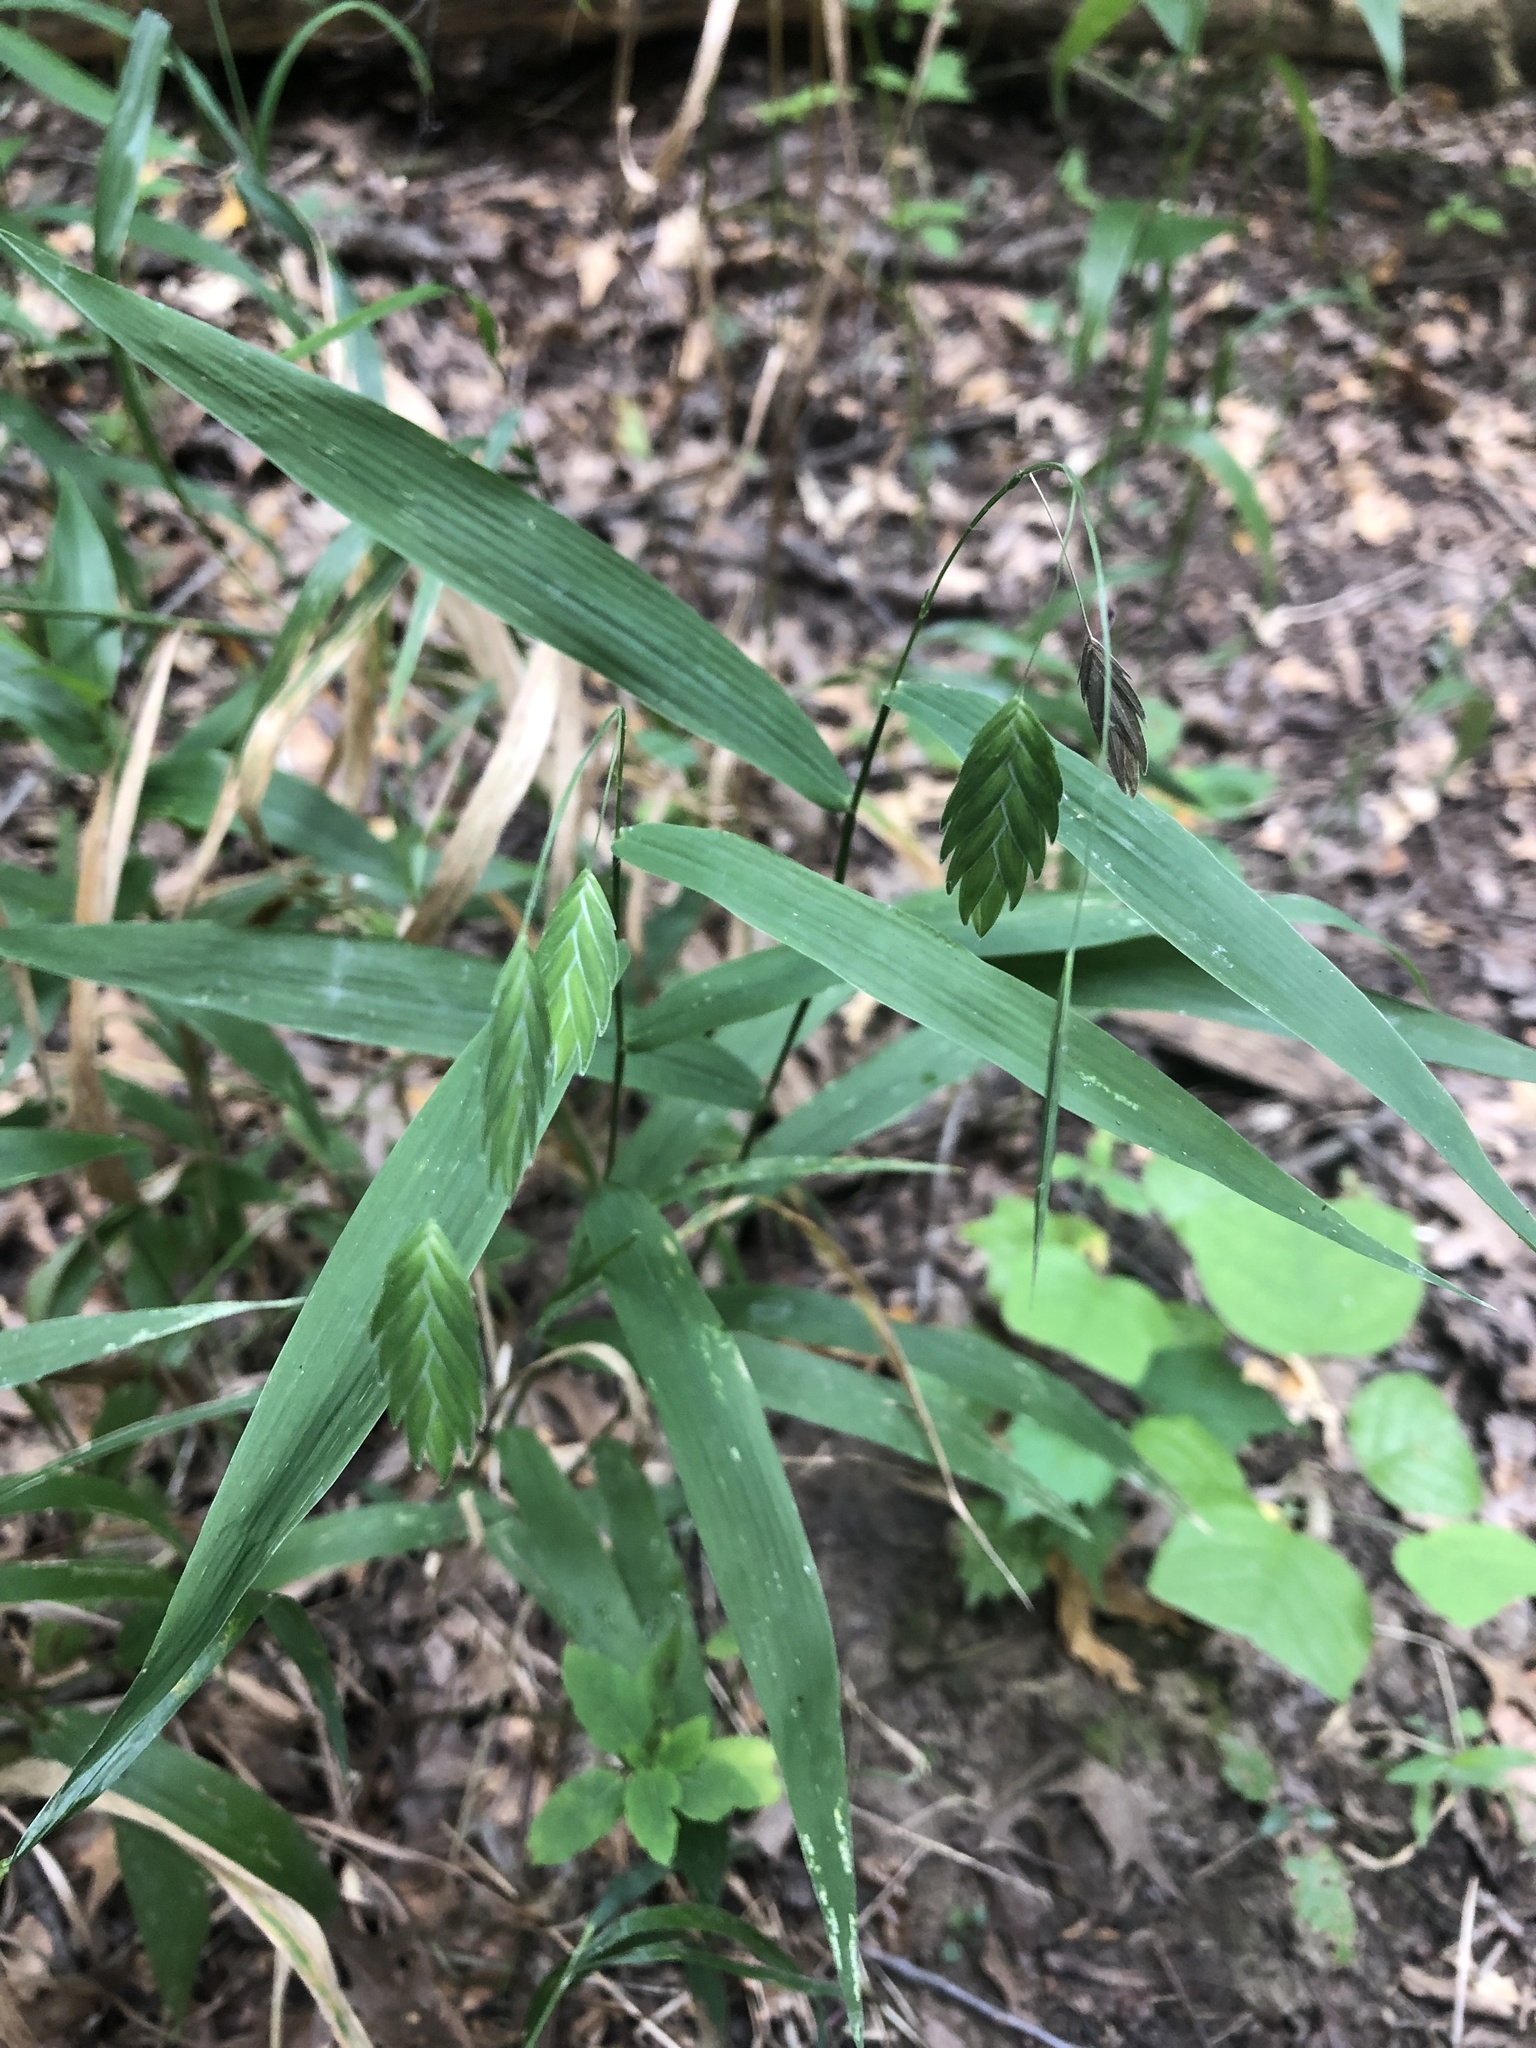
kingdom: Plantae
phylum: Tracheophyta
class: Liliopsida
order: Poales
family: Poaceae
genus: Chasmanthium
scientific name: Chasmanthium latifolium
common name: Broad-leaved chasmanthium
